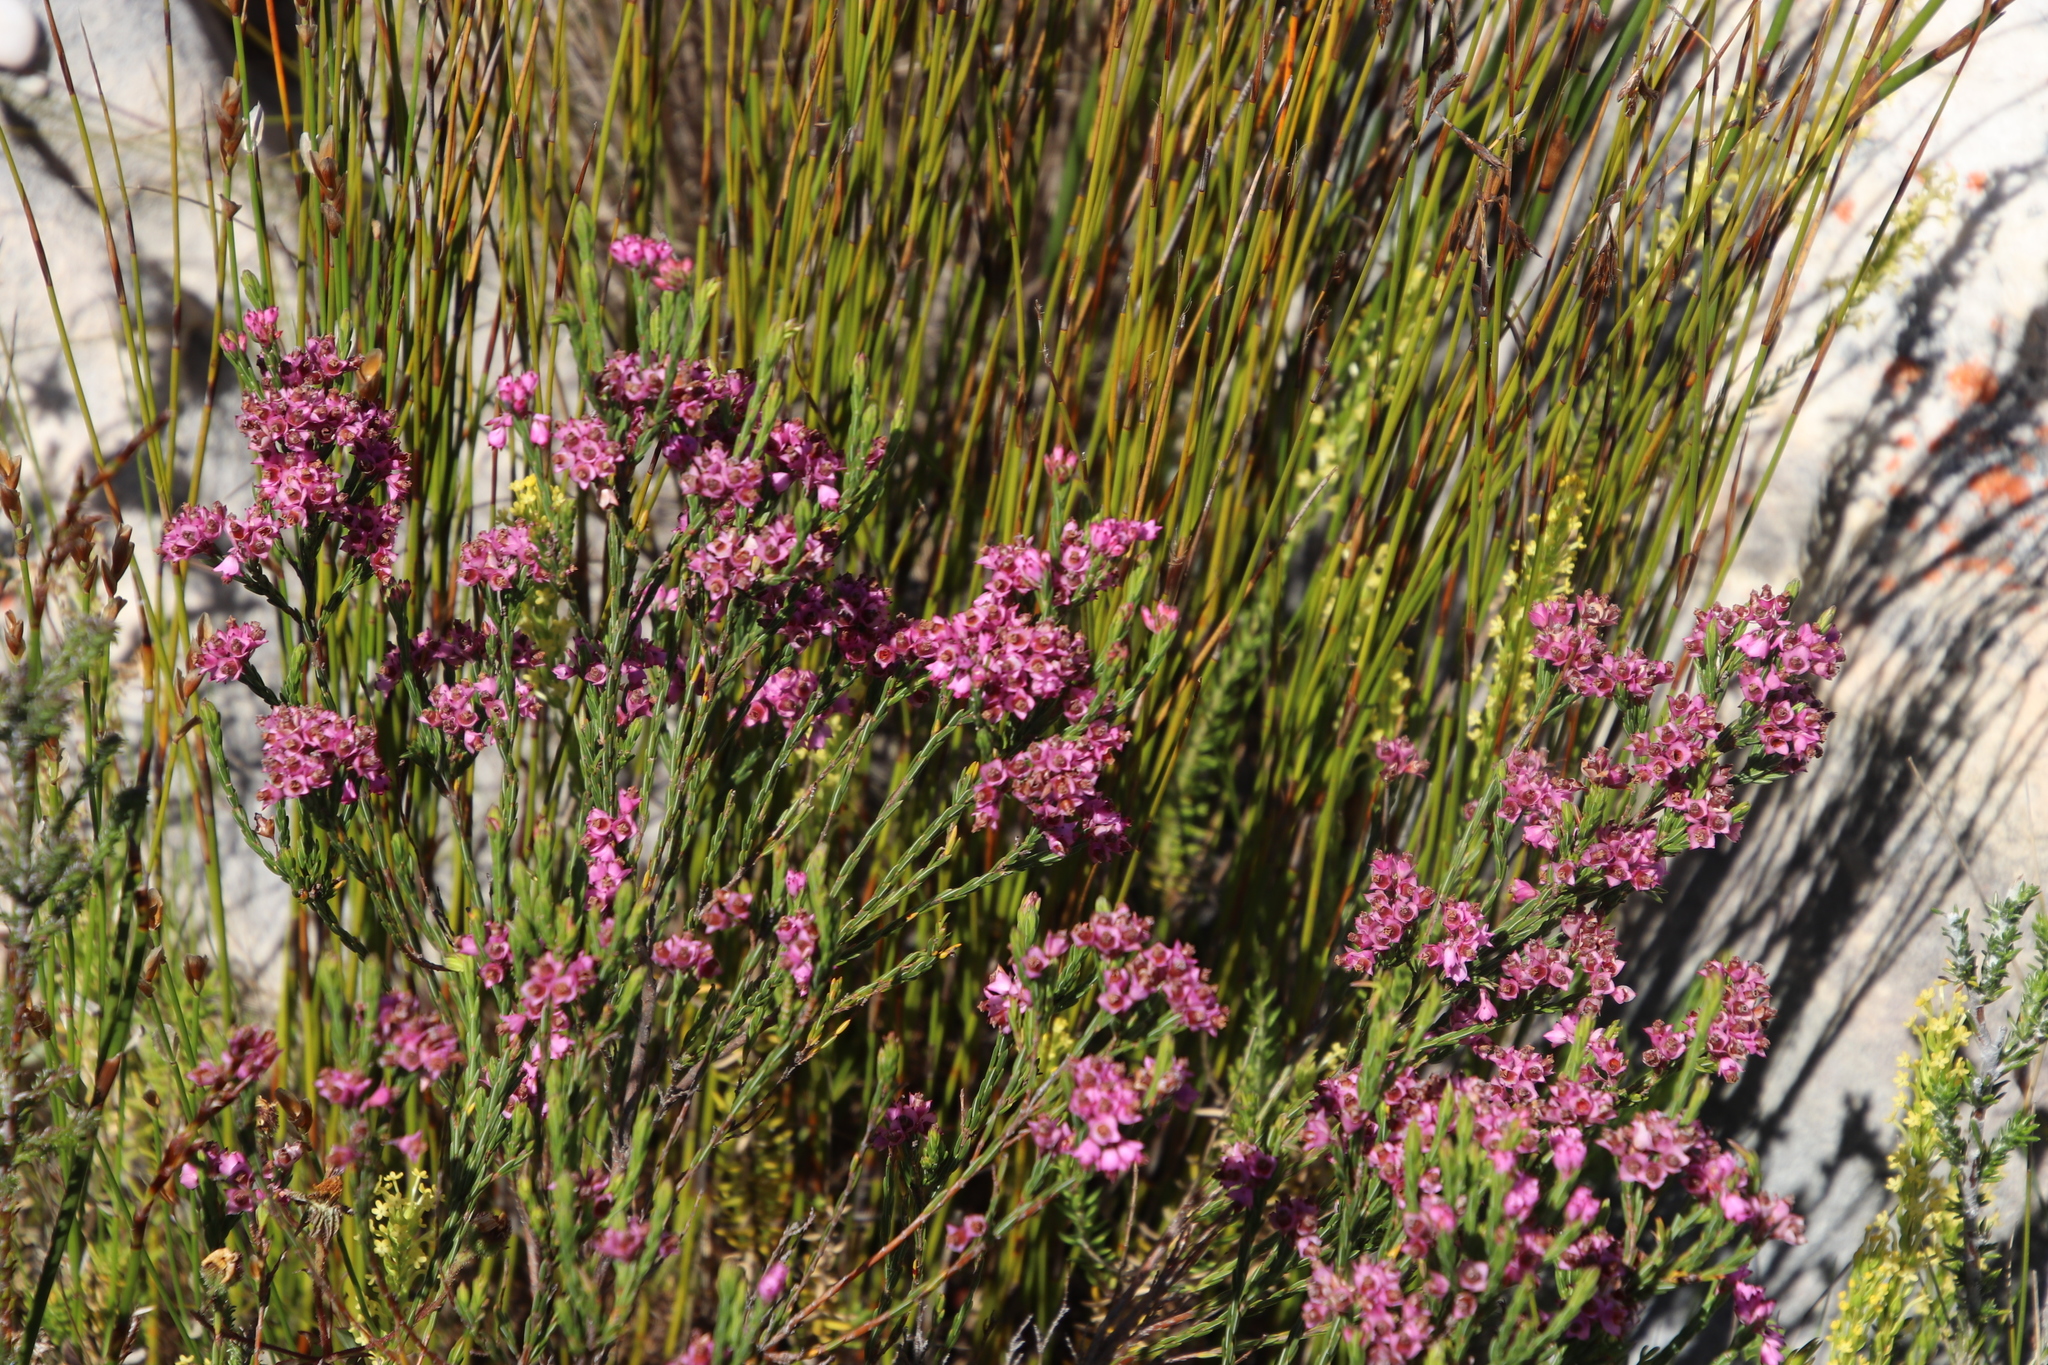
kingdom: Plantae
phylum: Tracheophyta
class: Magnoliopsida
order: Ericales
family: Ericaceae
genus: Erica
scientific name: Erica corifolia
